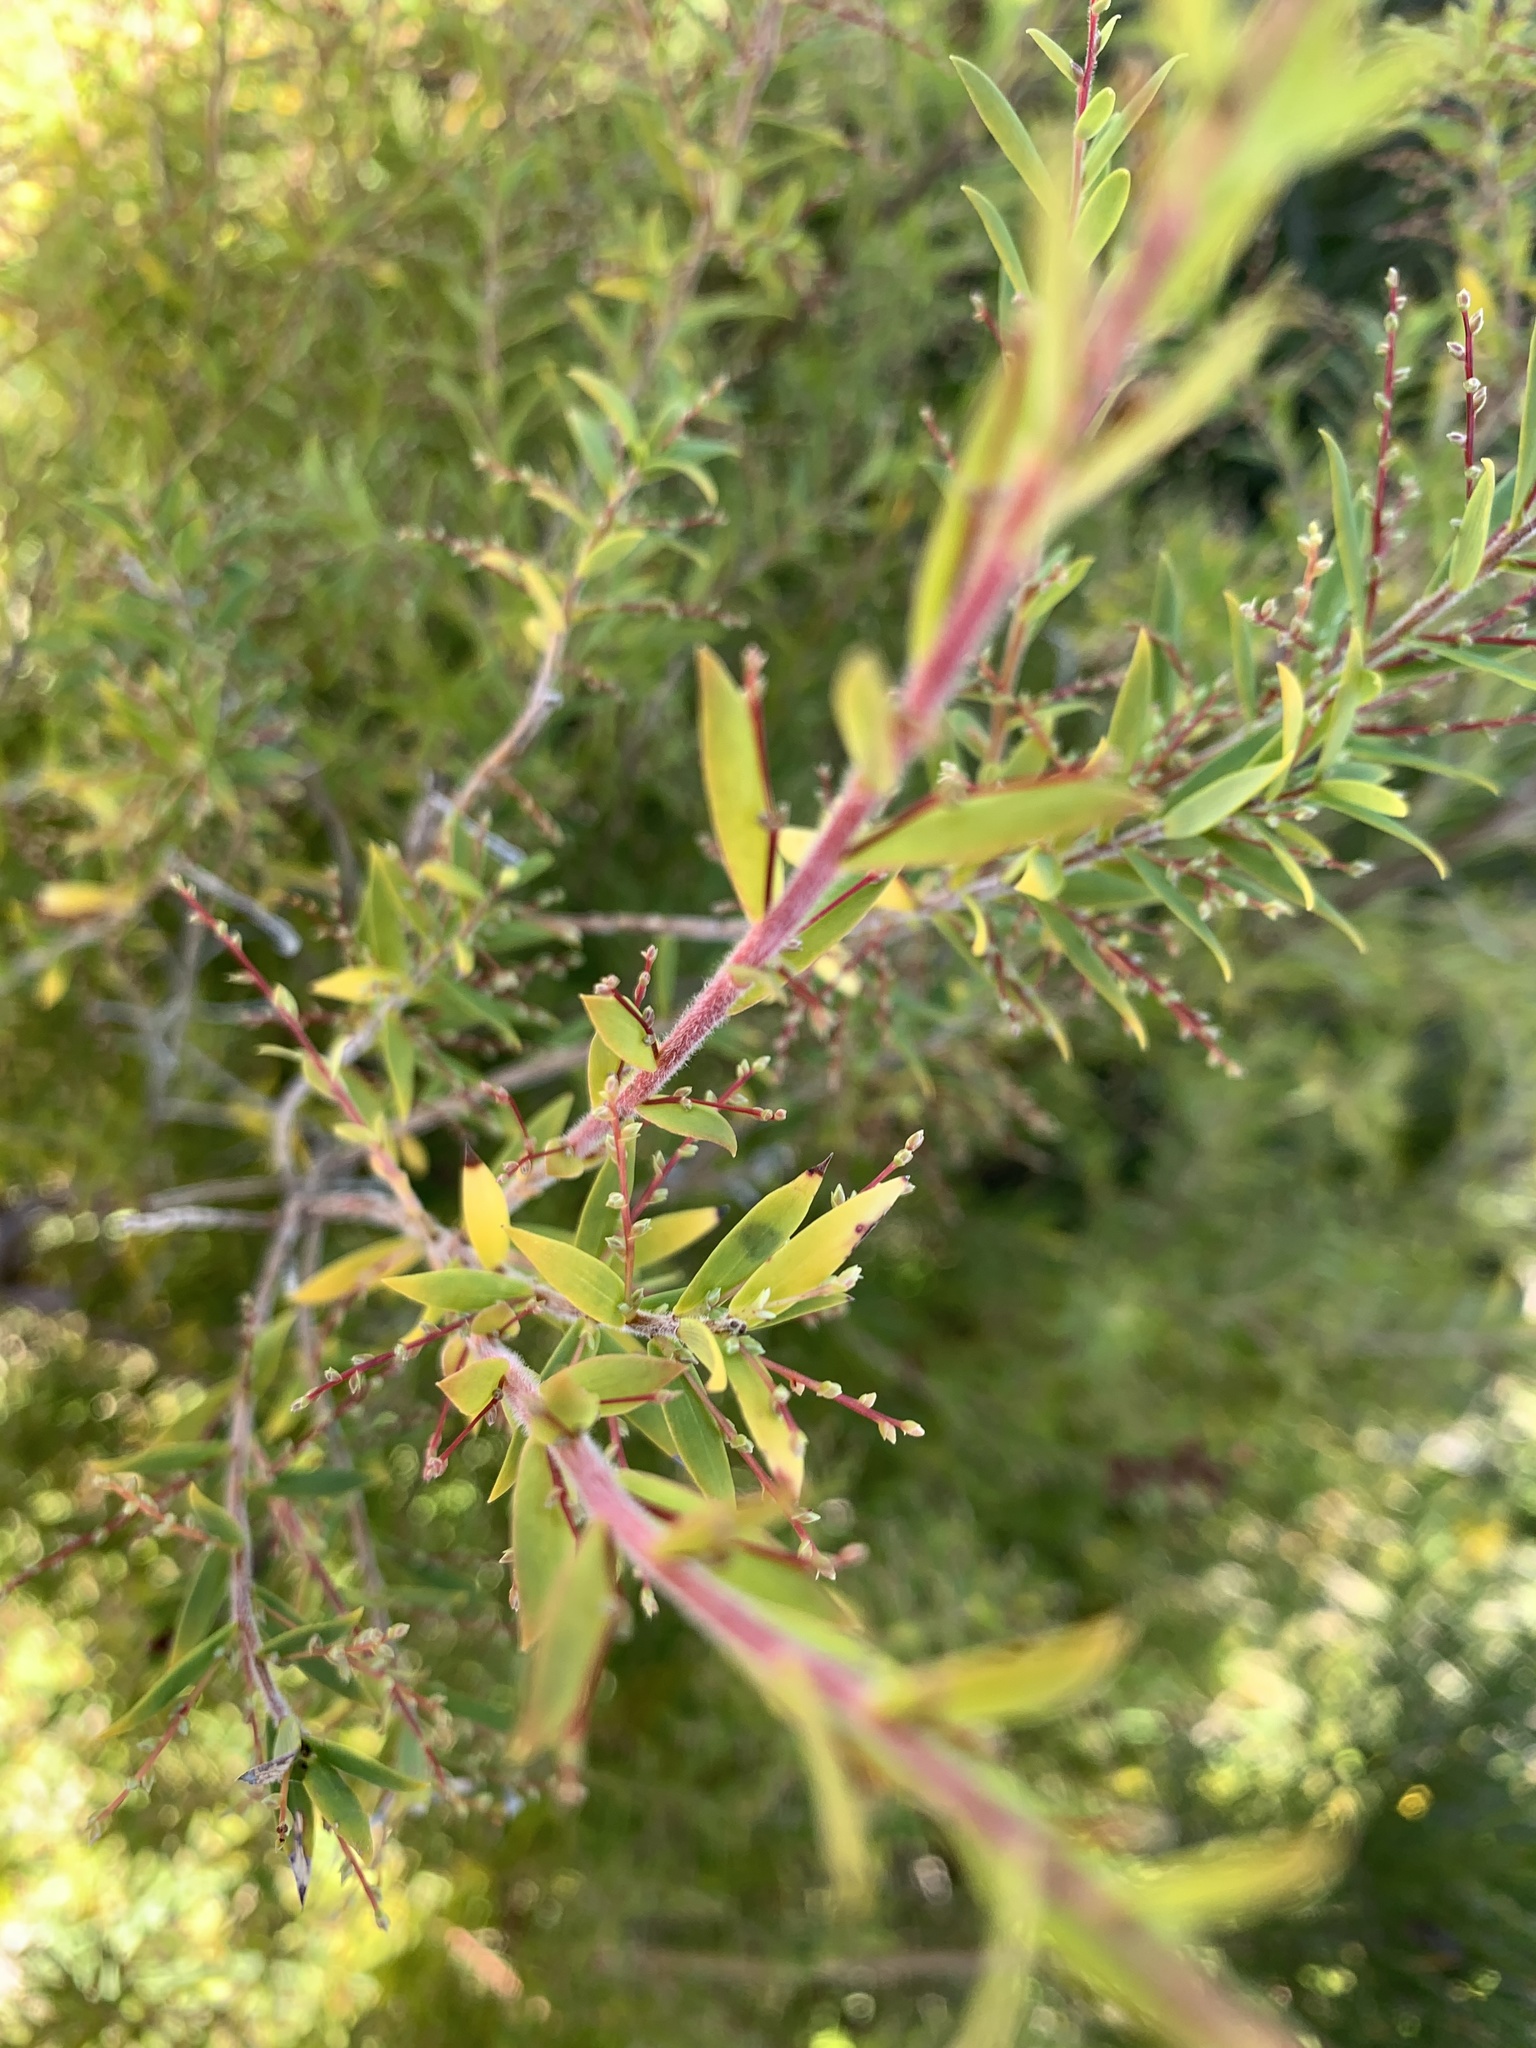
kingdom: Plantae
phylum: Tracheophyta
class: Magnoliopsida
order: Ericales
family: Ericaceae
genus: Leucopogon
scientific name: Leucopogon lanceolatus
